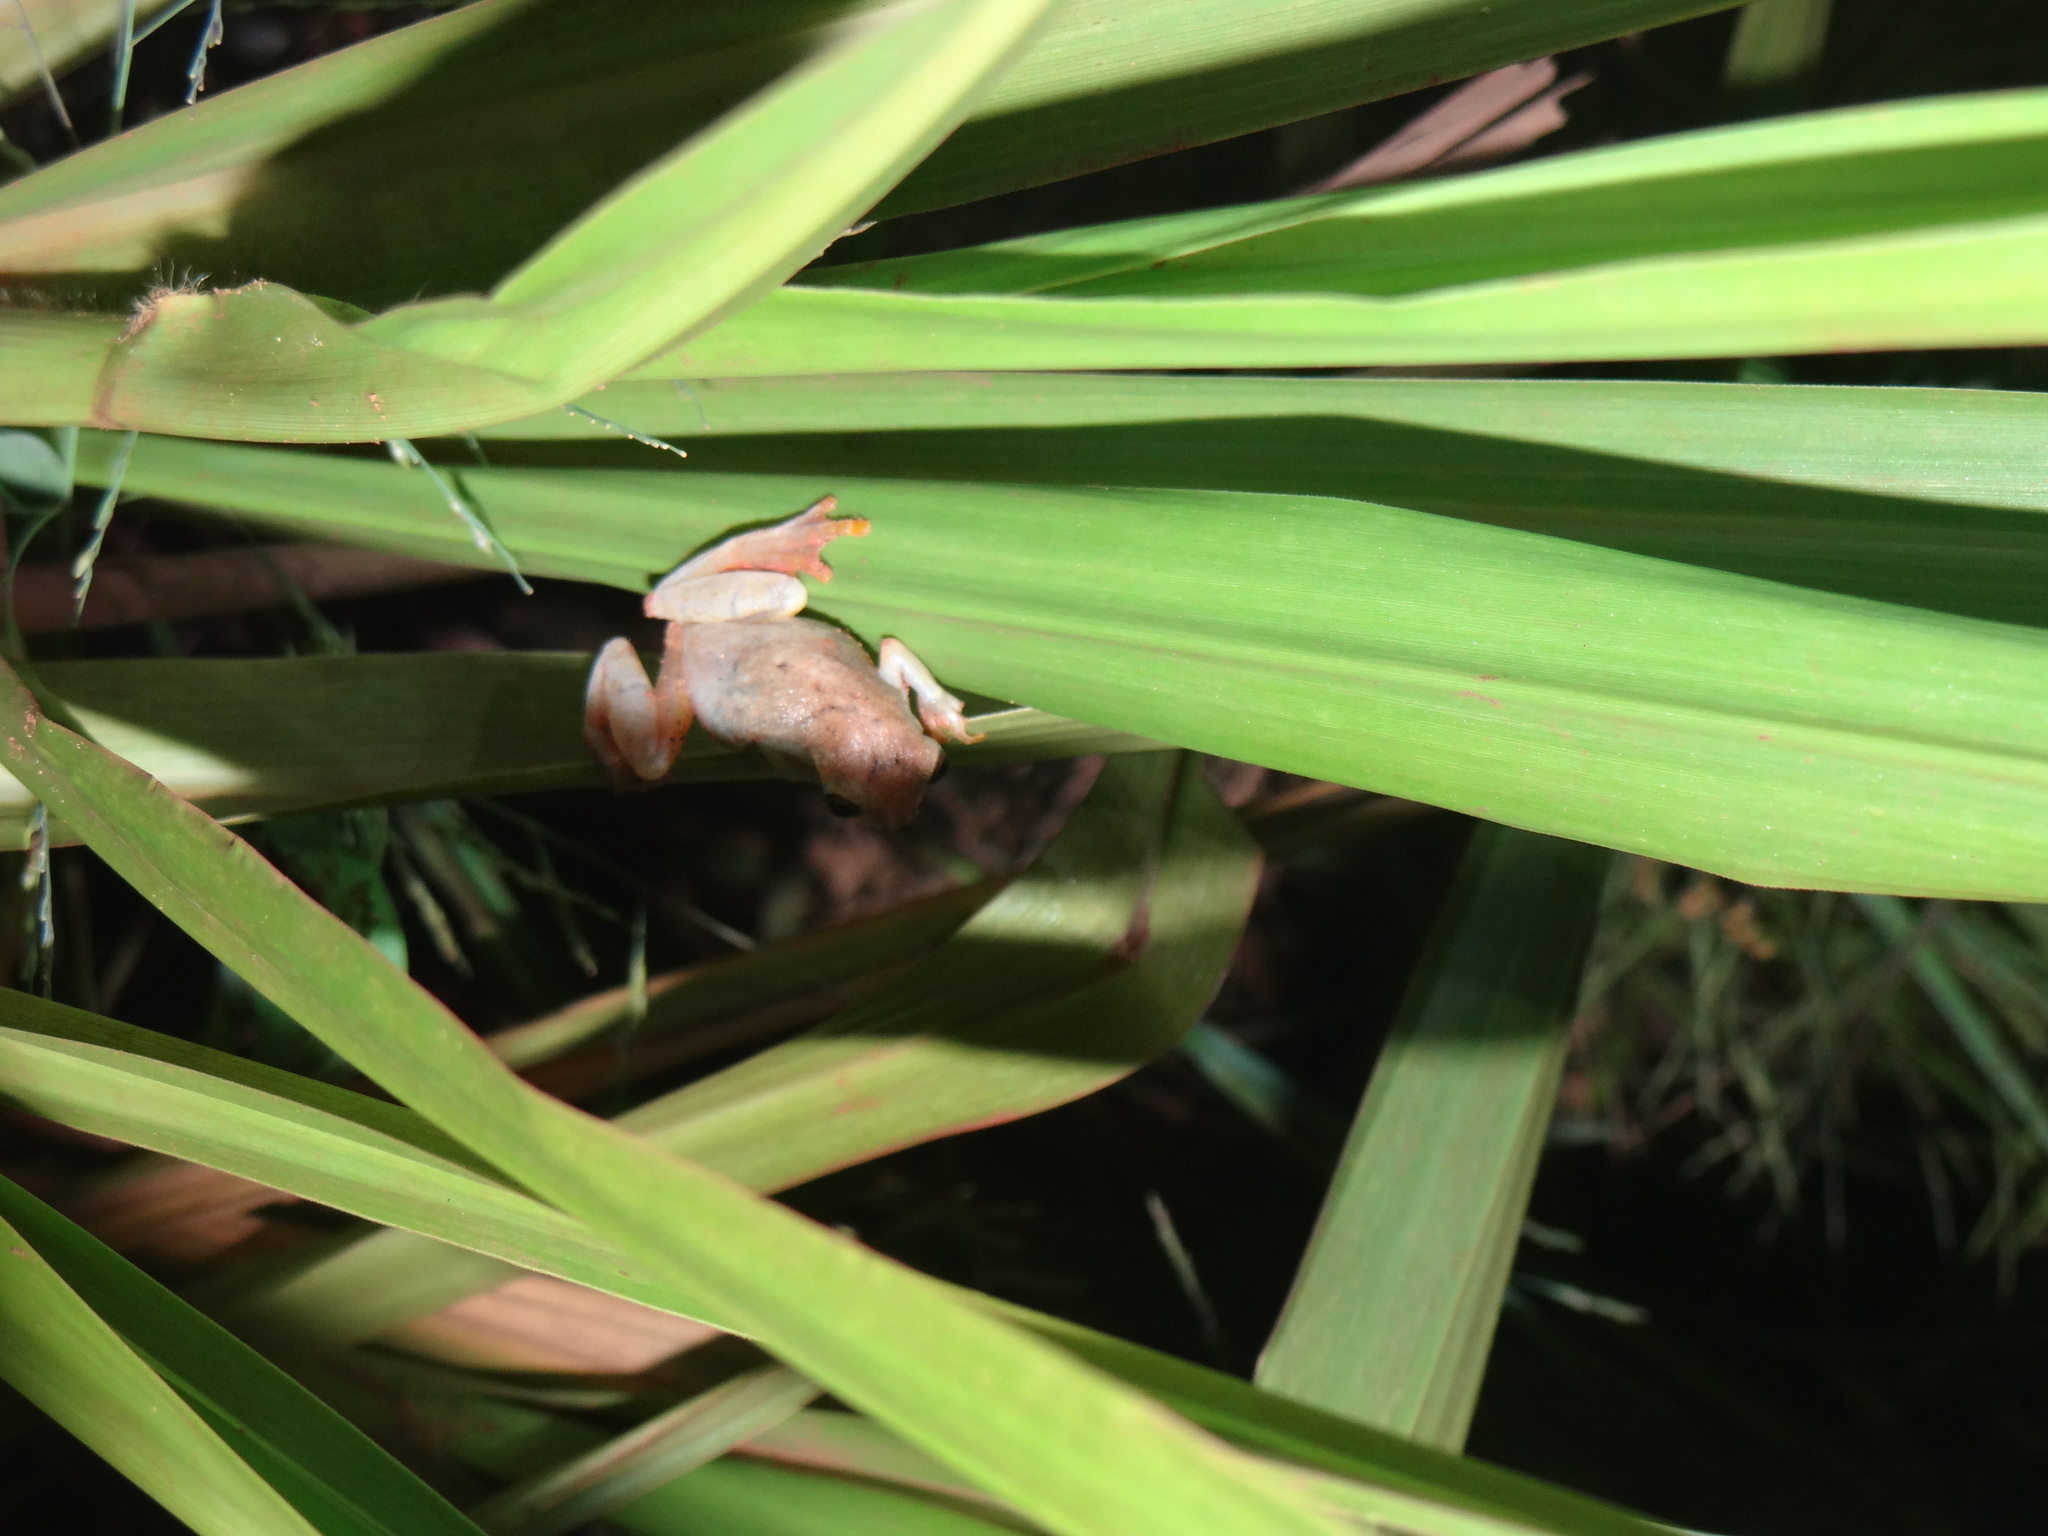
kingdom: Animalia
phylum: Chordata
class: Amphibia
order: Anura
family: Hylidae
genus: Dendropsophus
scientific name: Dendropsophus joannae
